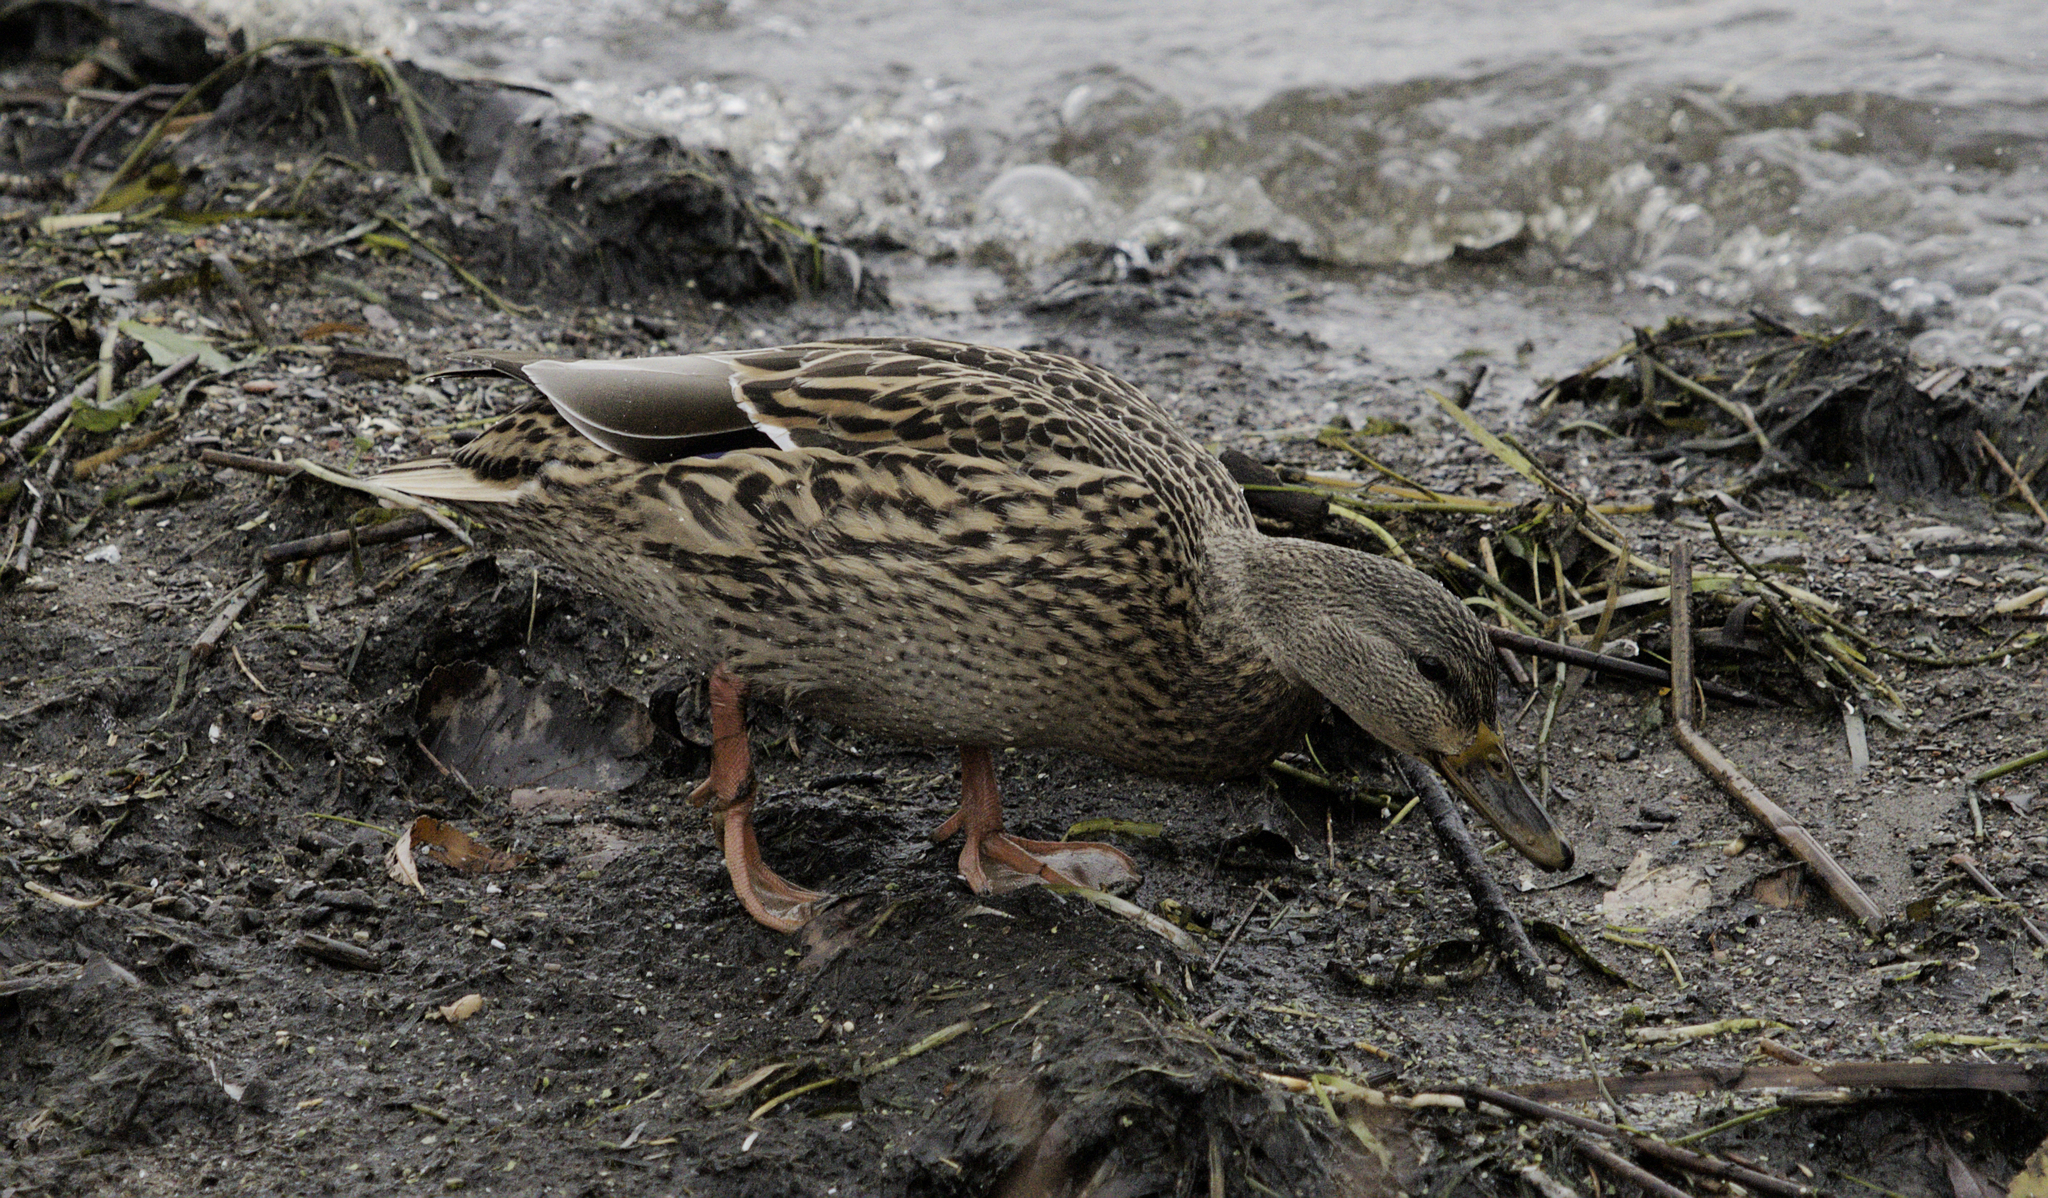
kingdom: Animalia
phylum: Chordata
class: Aves
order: Anseriformes
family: Anatidae
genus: Anas
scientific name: Anas platyrhynchos
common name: Mallard
